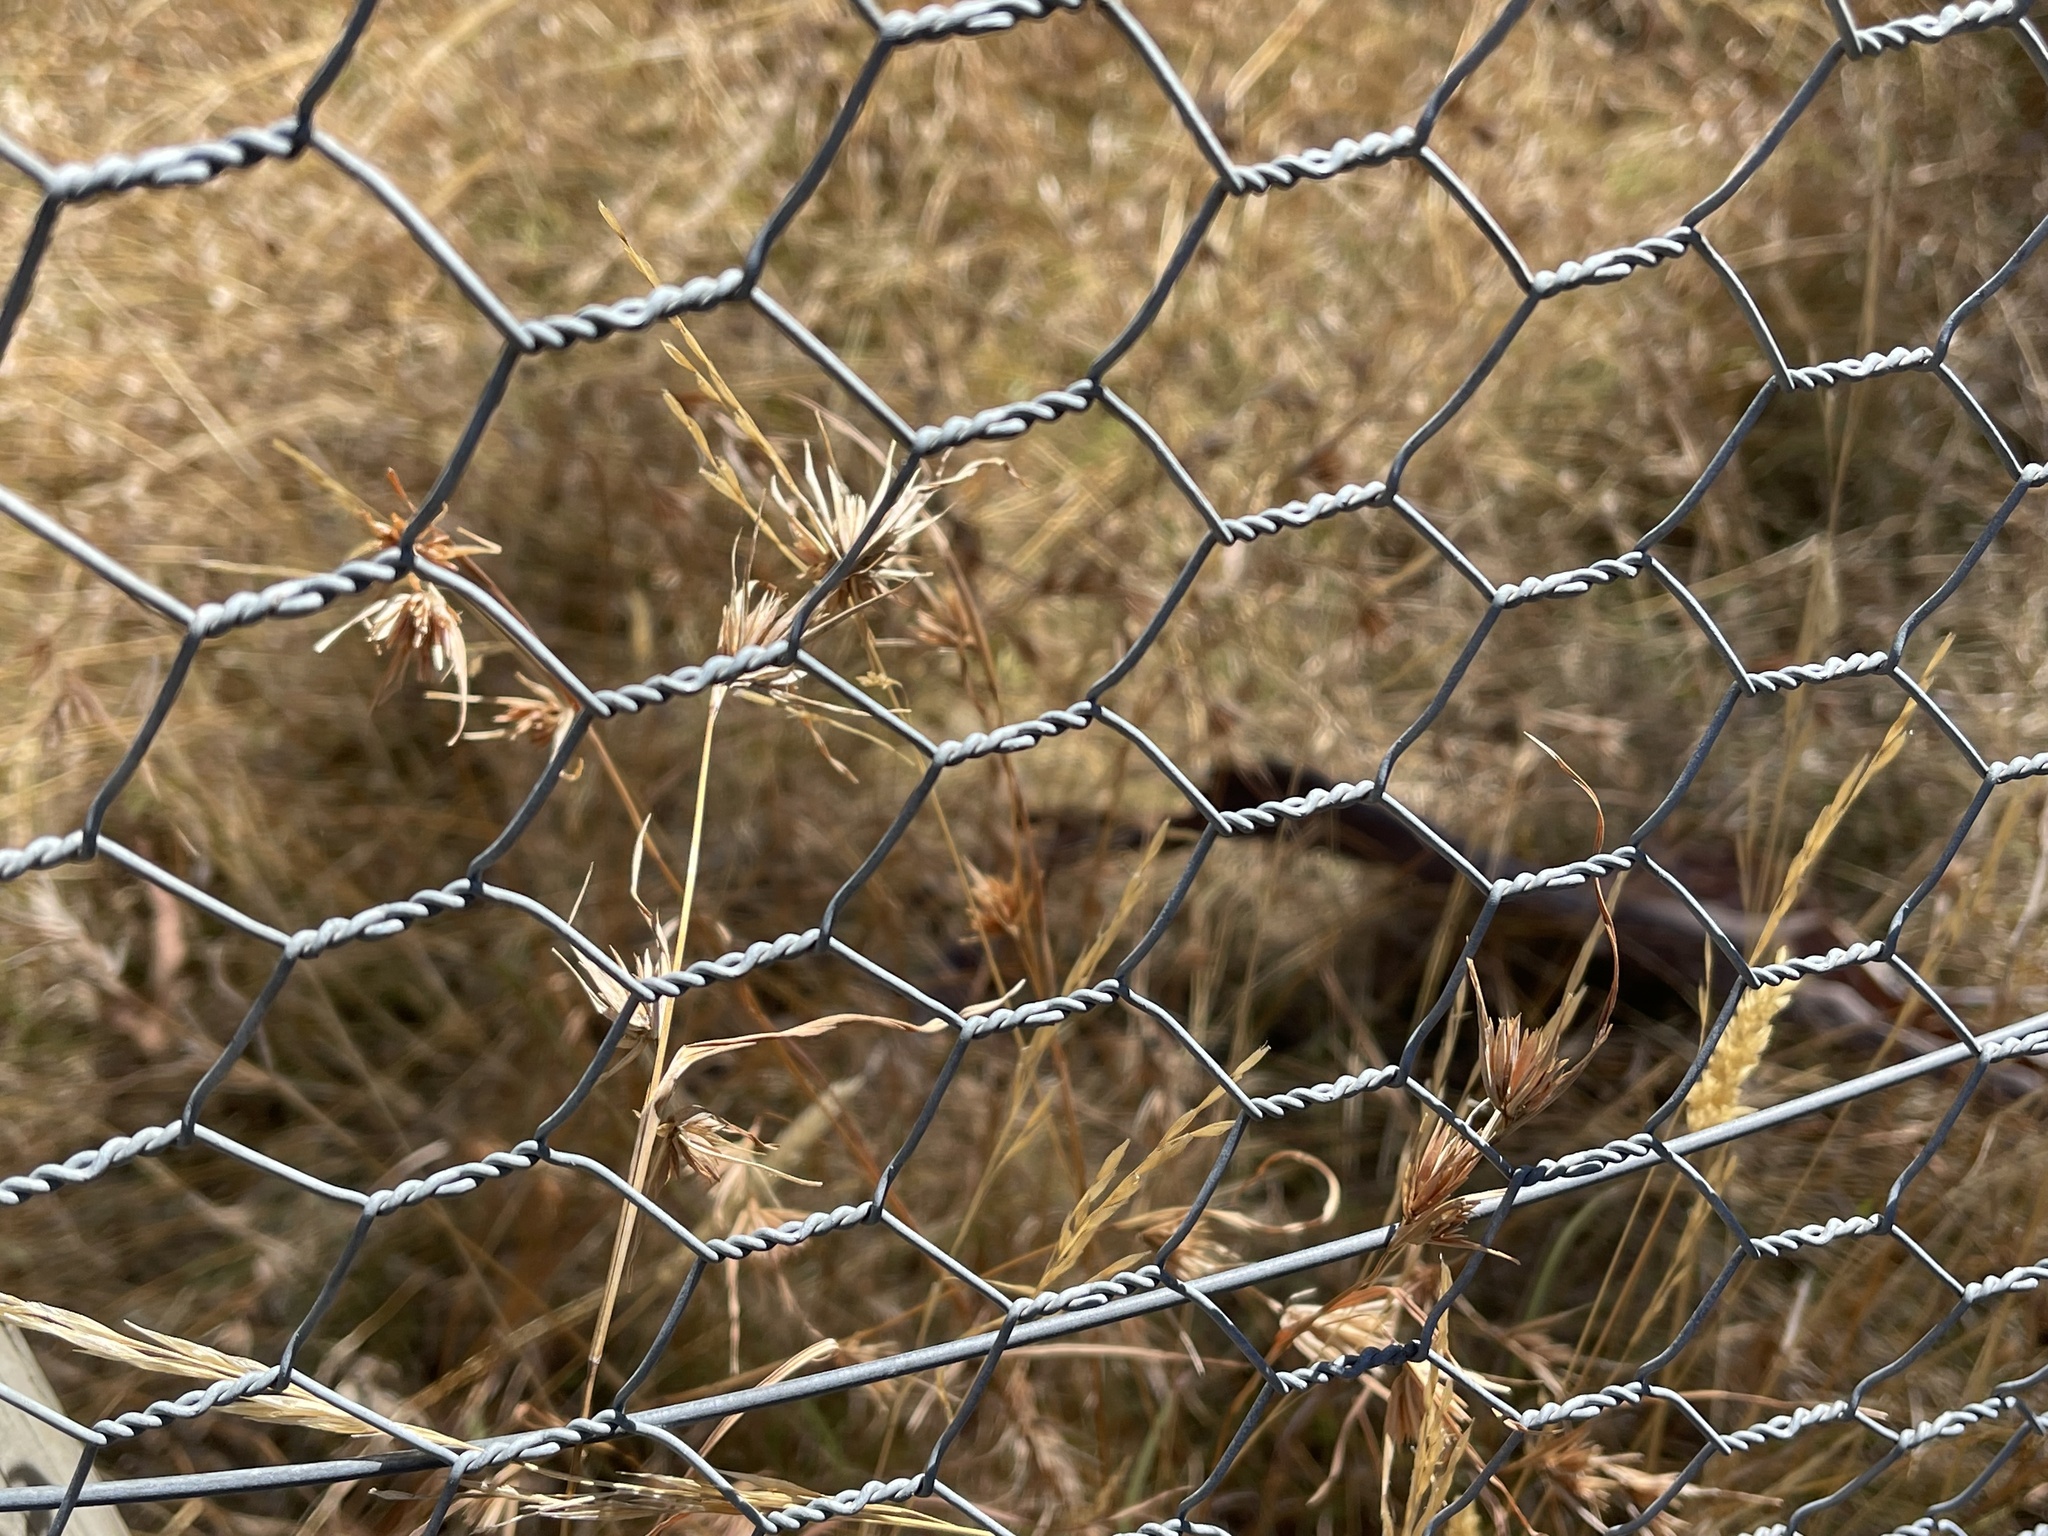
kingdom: Plantae
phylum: Tracheophyta
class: Liliopsida
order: Poales
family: Poaceae
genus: Themeda
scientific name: Themeda triandra
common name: Kangaroo grass
